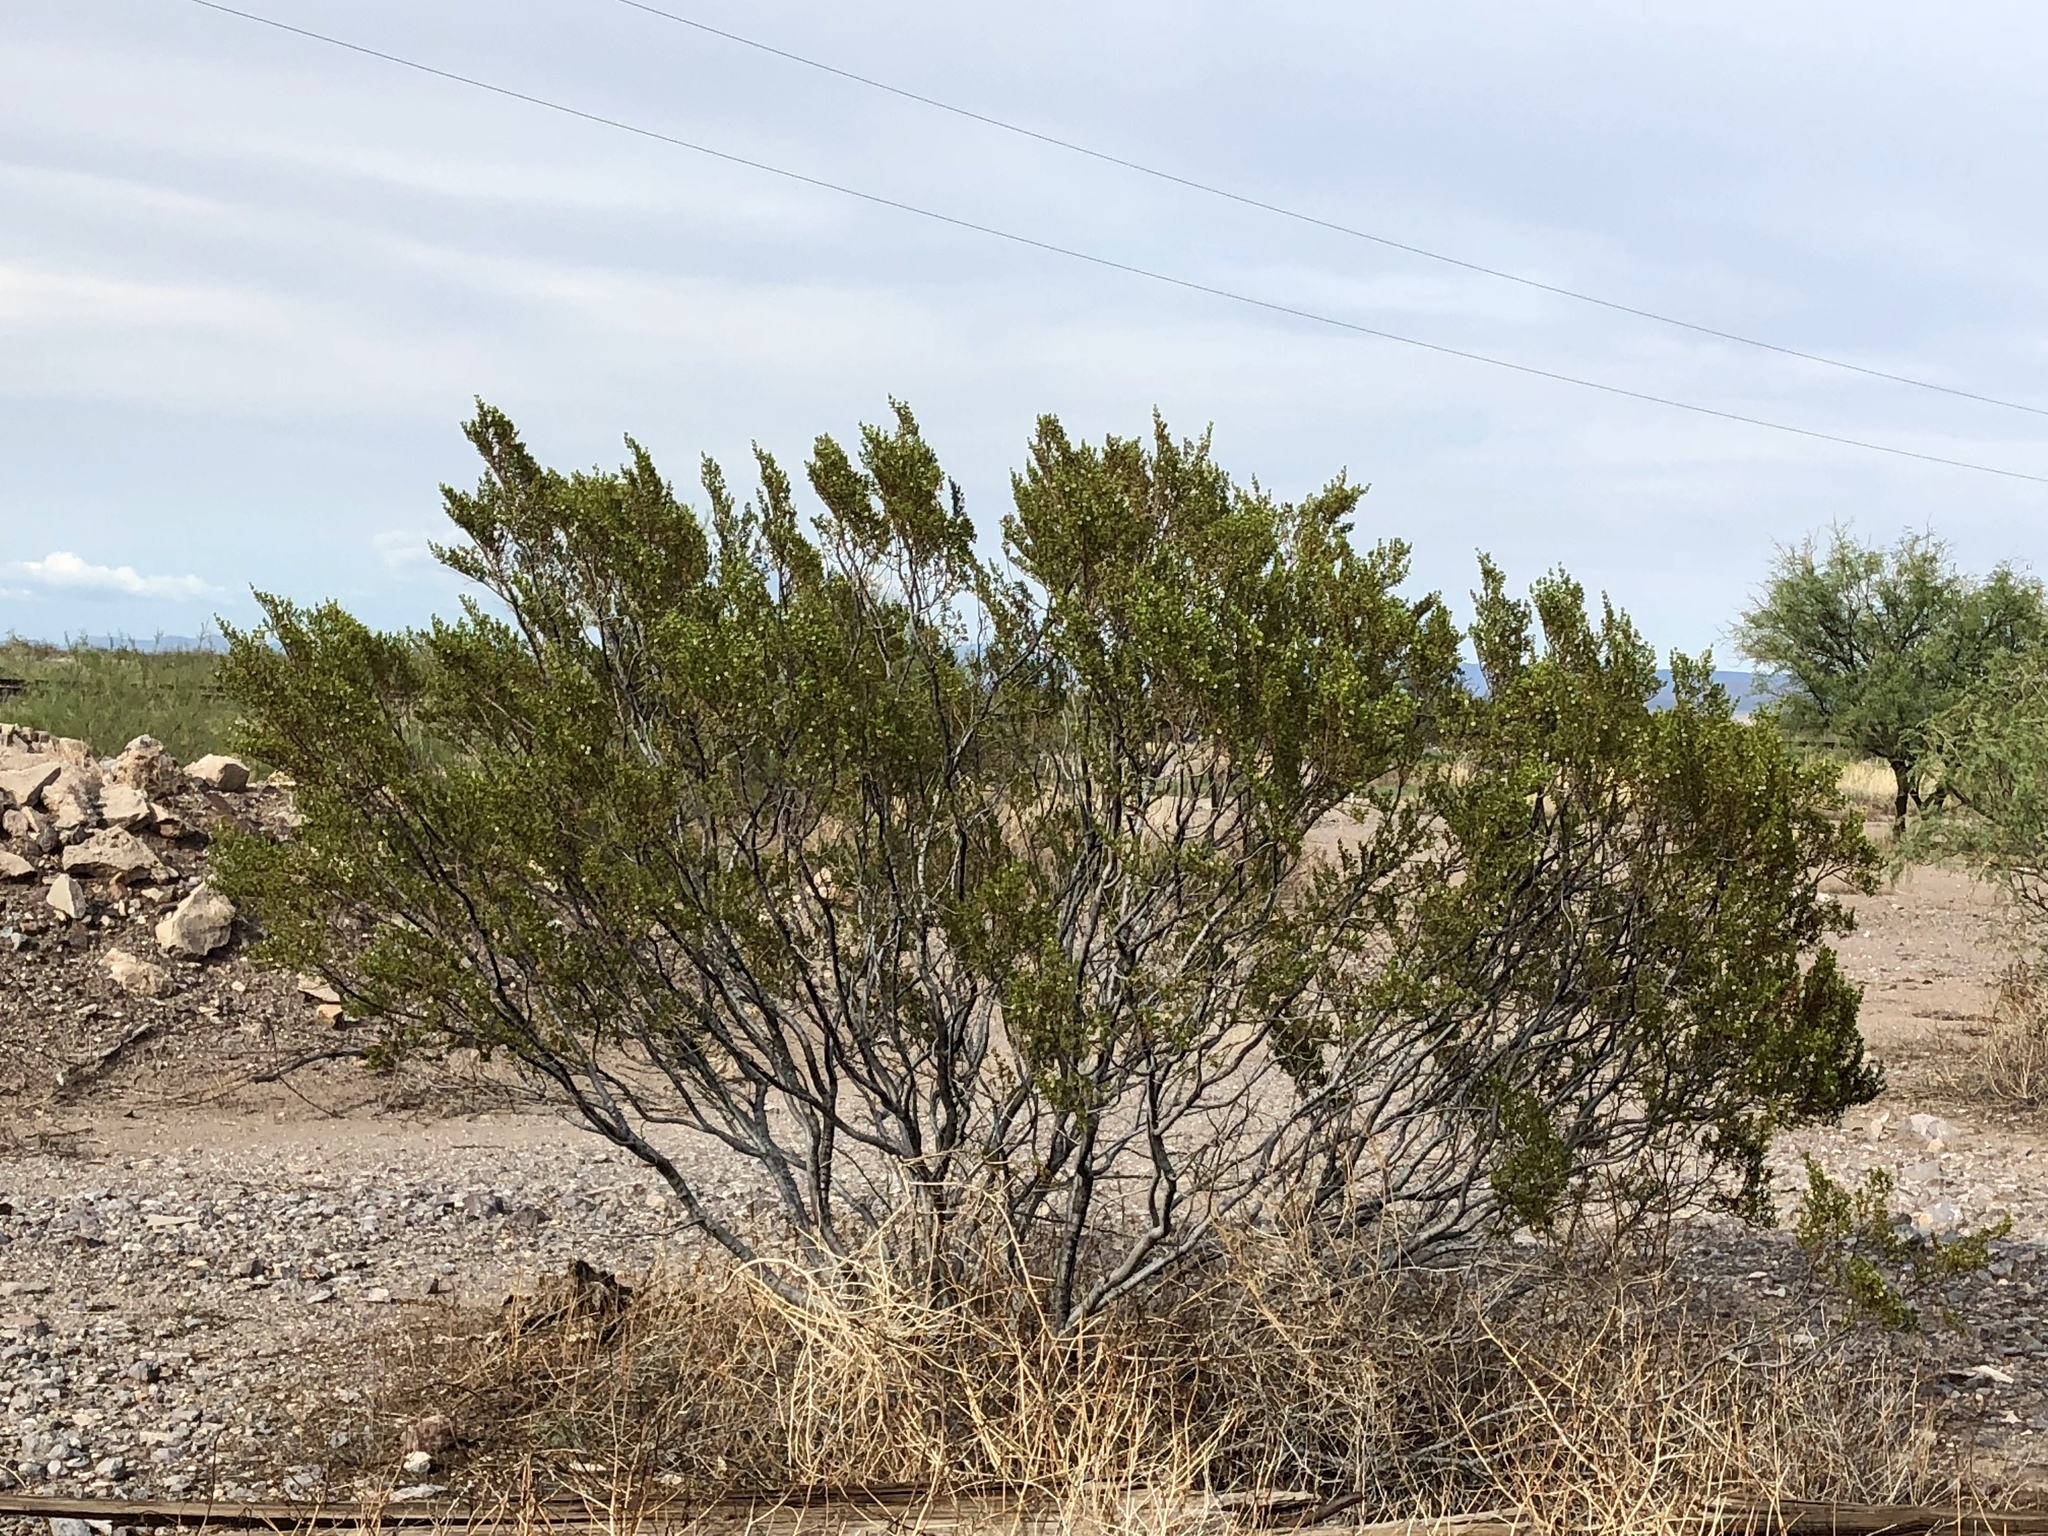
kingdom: Plantae
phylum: Tracheophyta
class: Magnoliopsida
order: Zygophyllales
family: Zygophyllaceae
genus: Larrea
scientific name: Larrea tridentata
